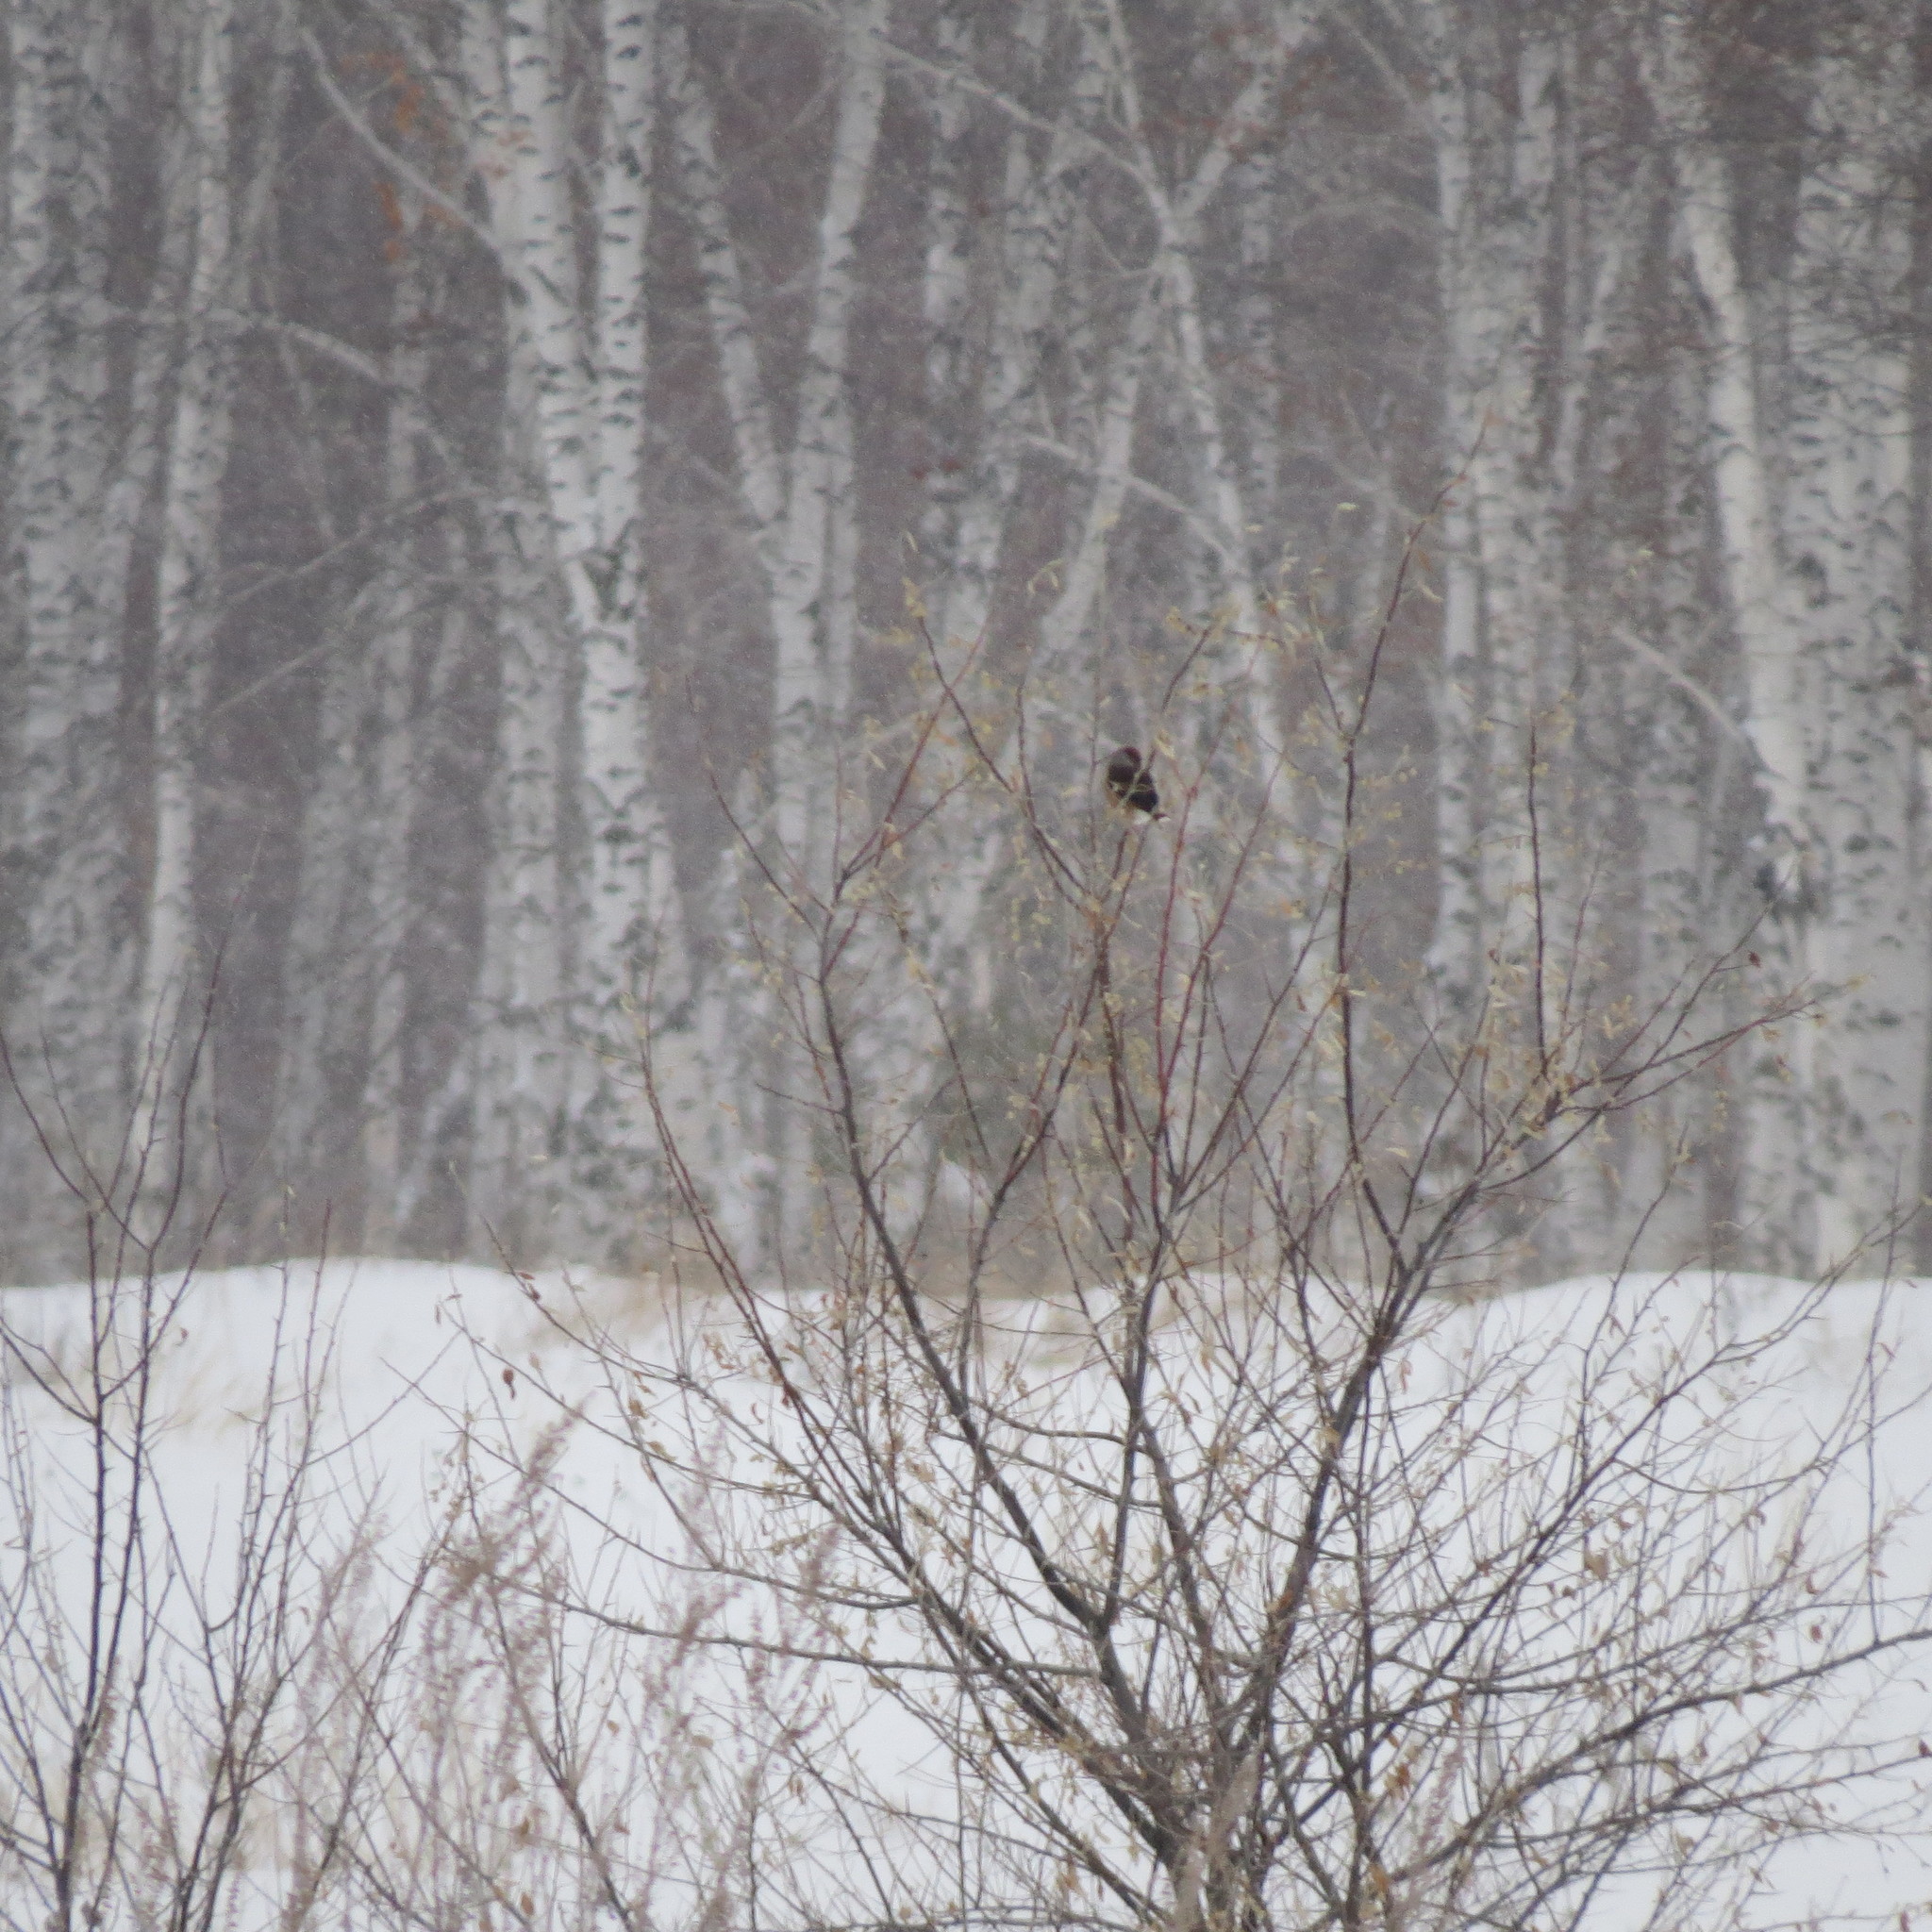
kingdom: Animalia
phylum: Chordata
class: Aves
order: Passeriformes
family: Fringillidae
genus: Coccothraustes
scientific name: Coccothraustes coccothraustes
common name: Hawfinch
